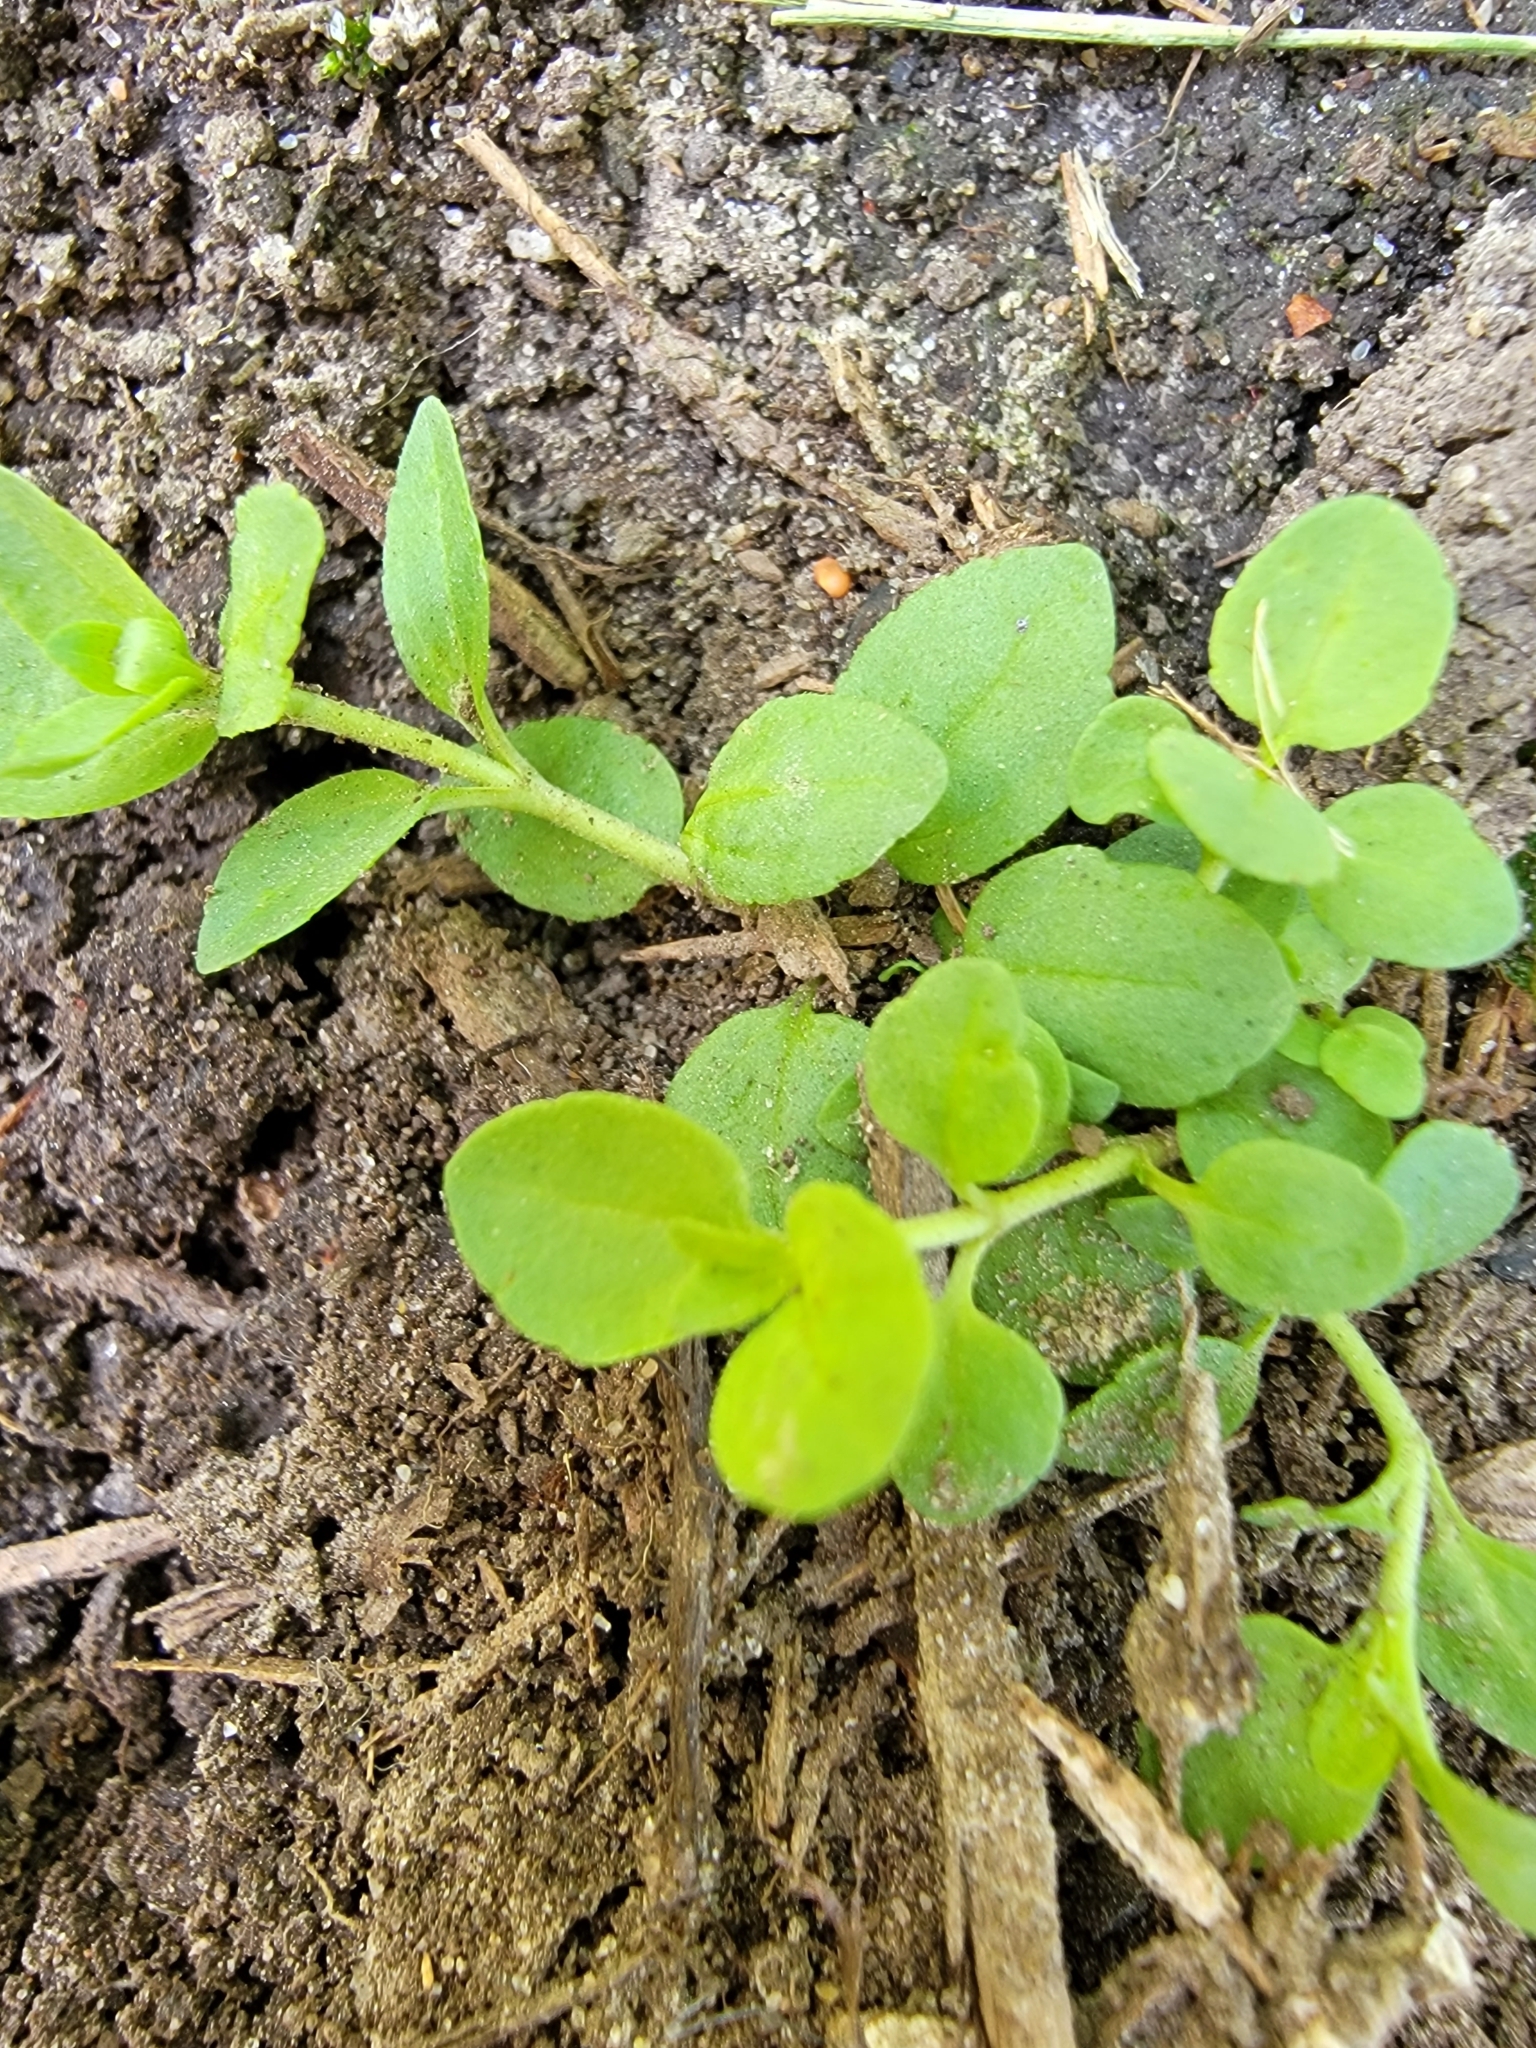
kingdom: Plantae
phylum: Tracheophyta
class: Magnoliopsida
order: Lamiales
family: Plantaginaceae
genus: Veronica
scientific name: Veronica serpyllifolia
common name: Thyme-leaved speedwell
